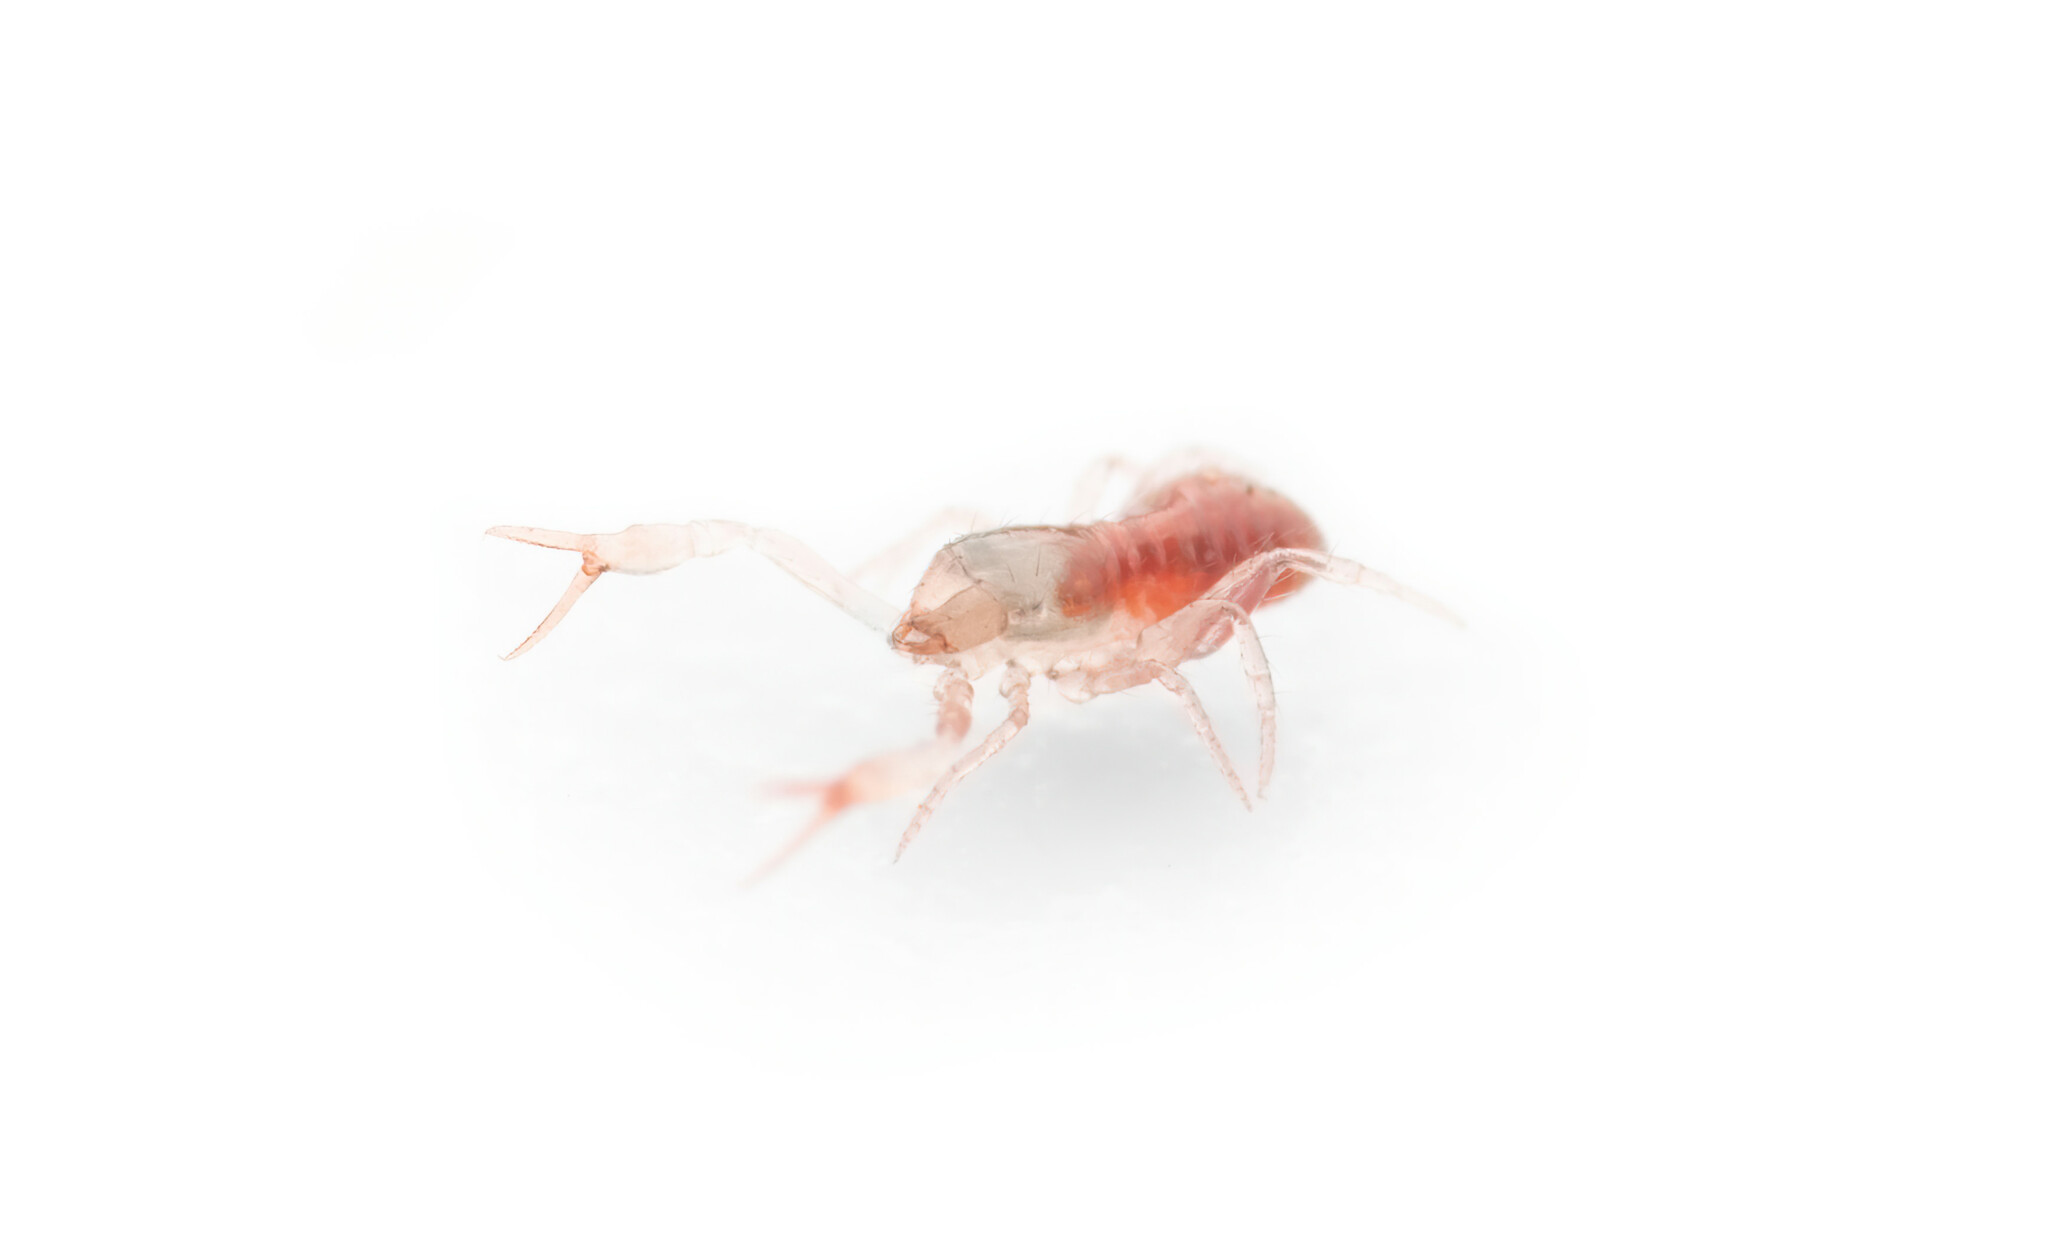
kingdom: Animalia
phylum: Arthropoda
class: Arachnida
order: Pseudoscorpiones
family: Chthoniidae
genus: Ephippiochthonius
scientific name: Ephippiochthonius tetrachelatus
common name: Pseudoscorpion
